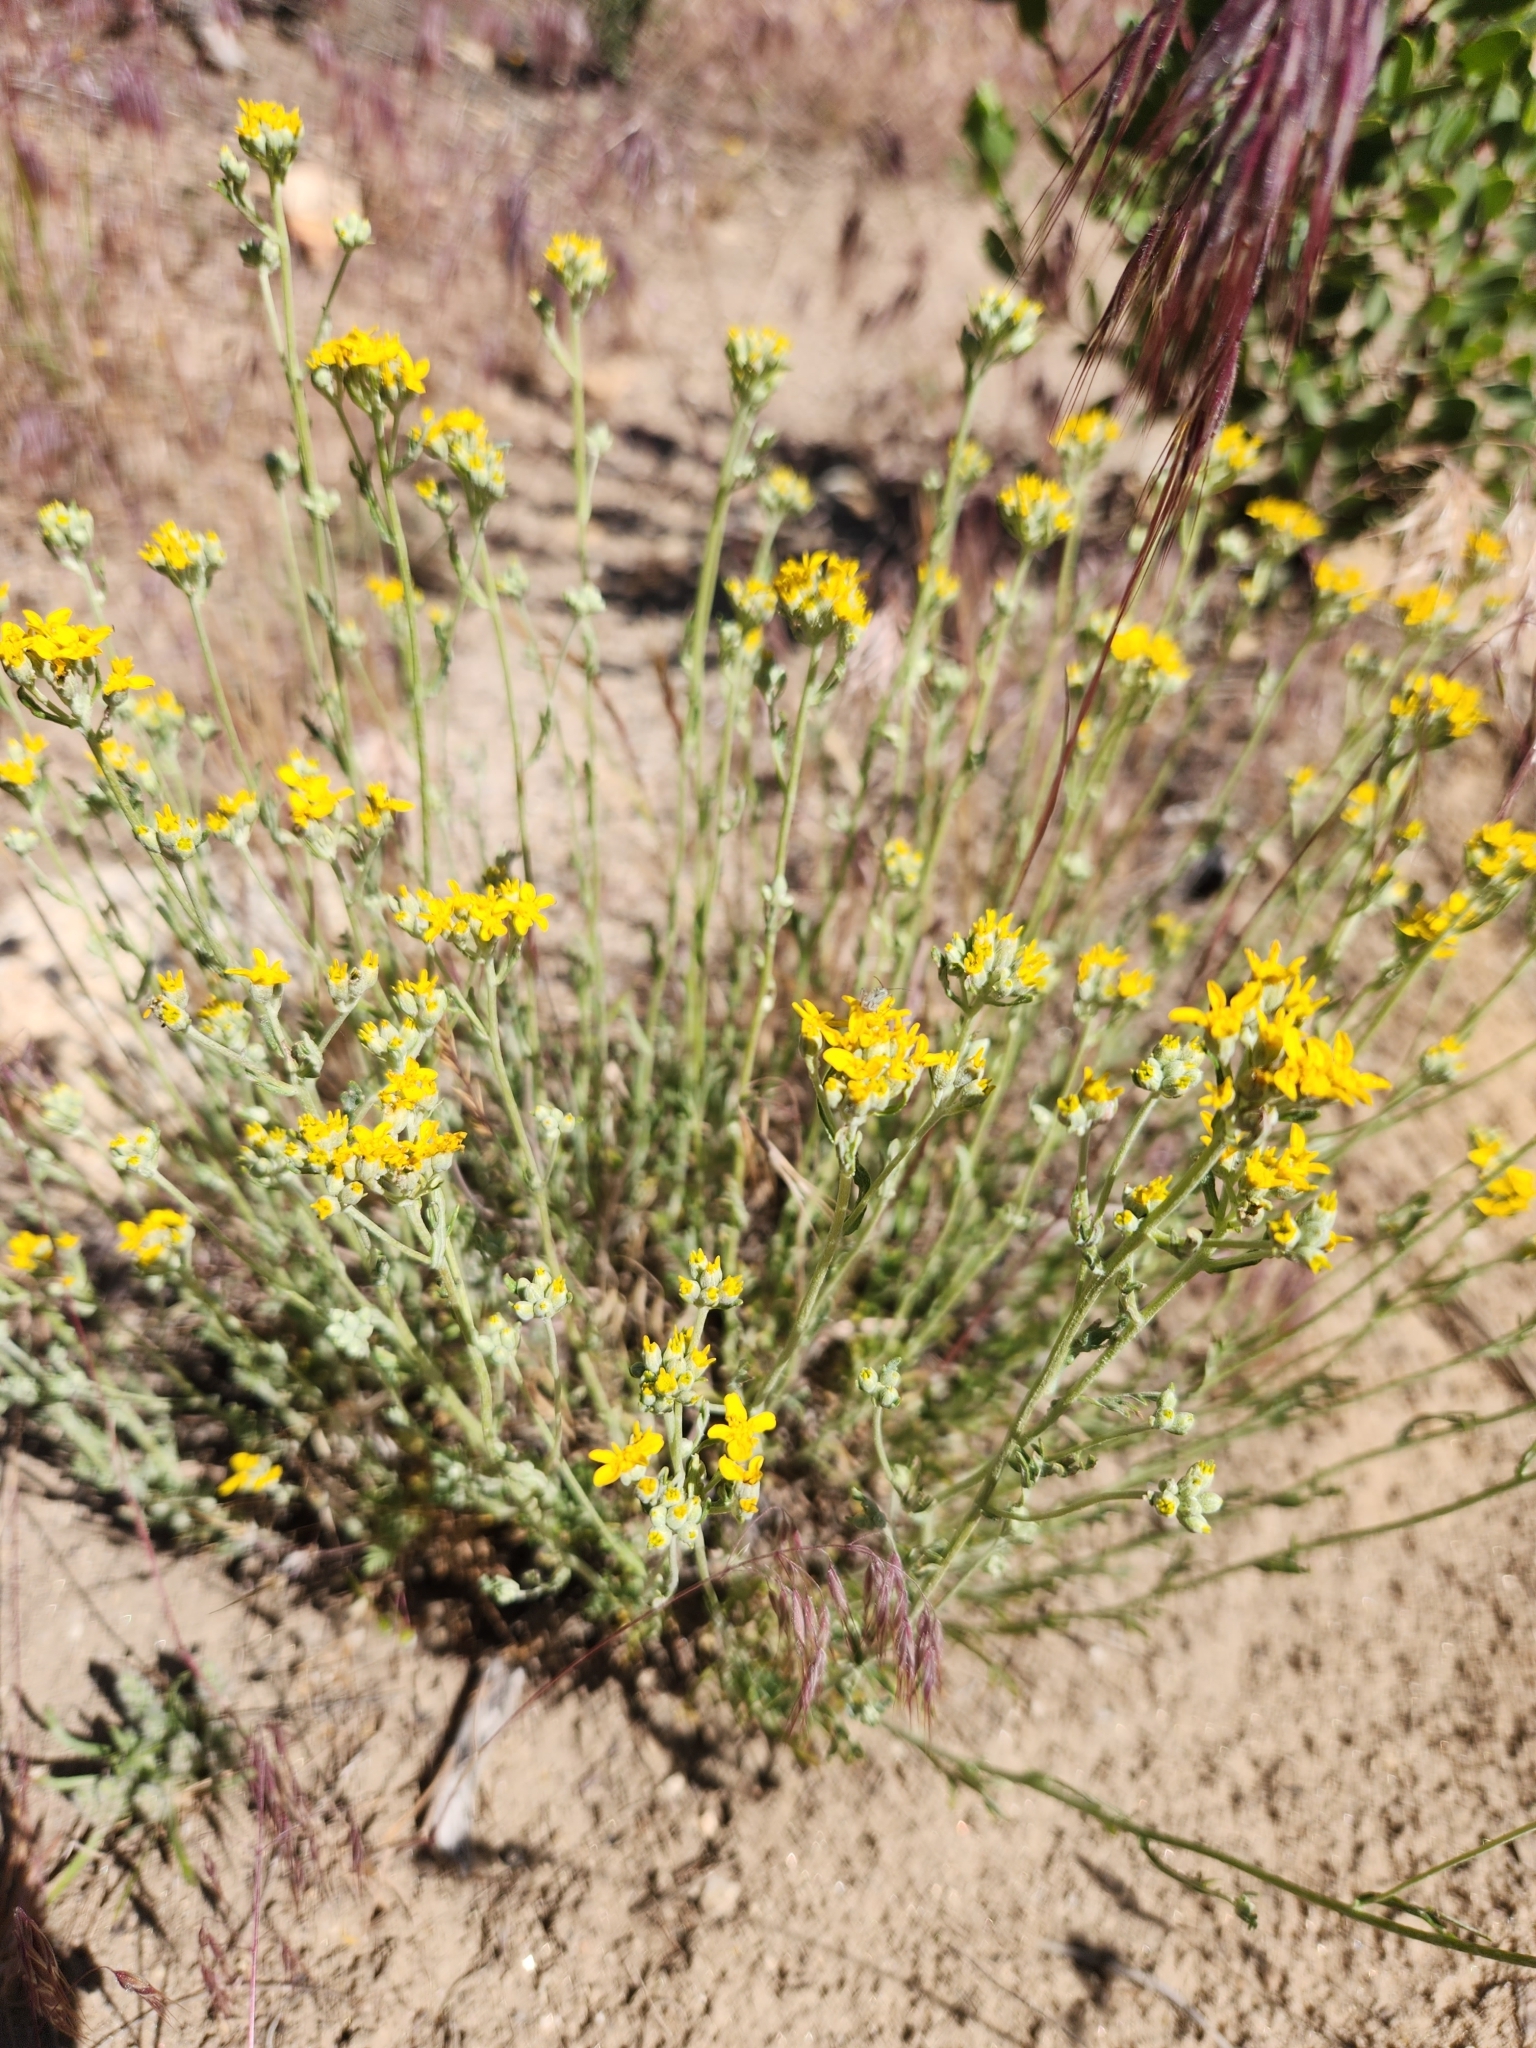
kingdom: Plantae
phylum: Tracheophyta
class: Magnoliopsida
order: Asterales
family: Asteraceae
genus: Eriophyllum
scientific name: Eriophyllum confertiflorum
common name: Golden-yarrow
